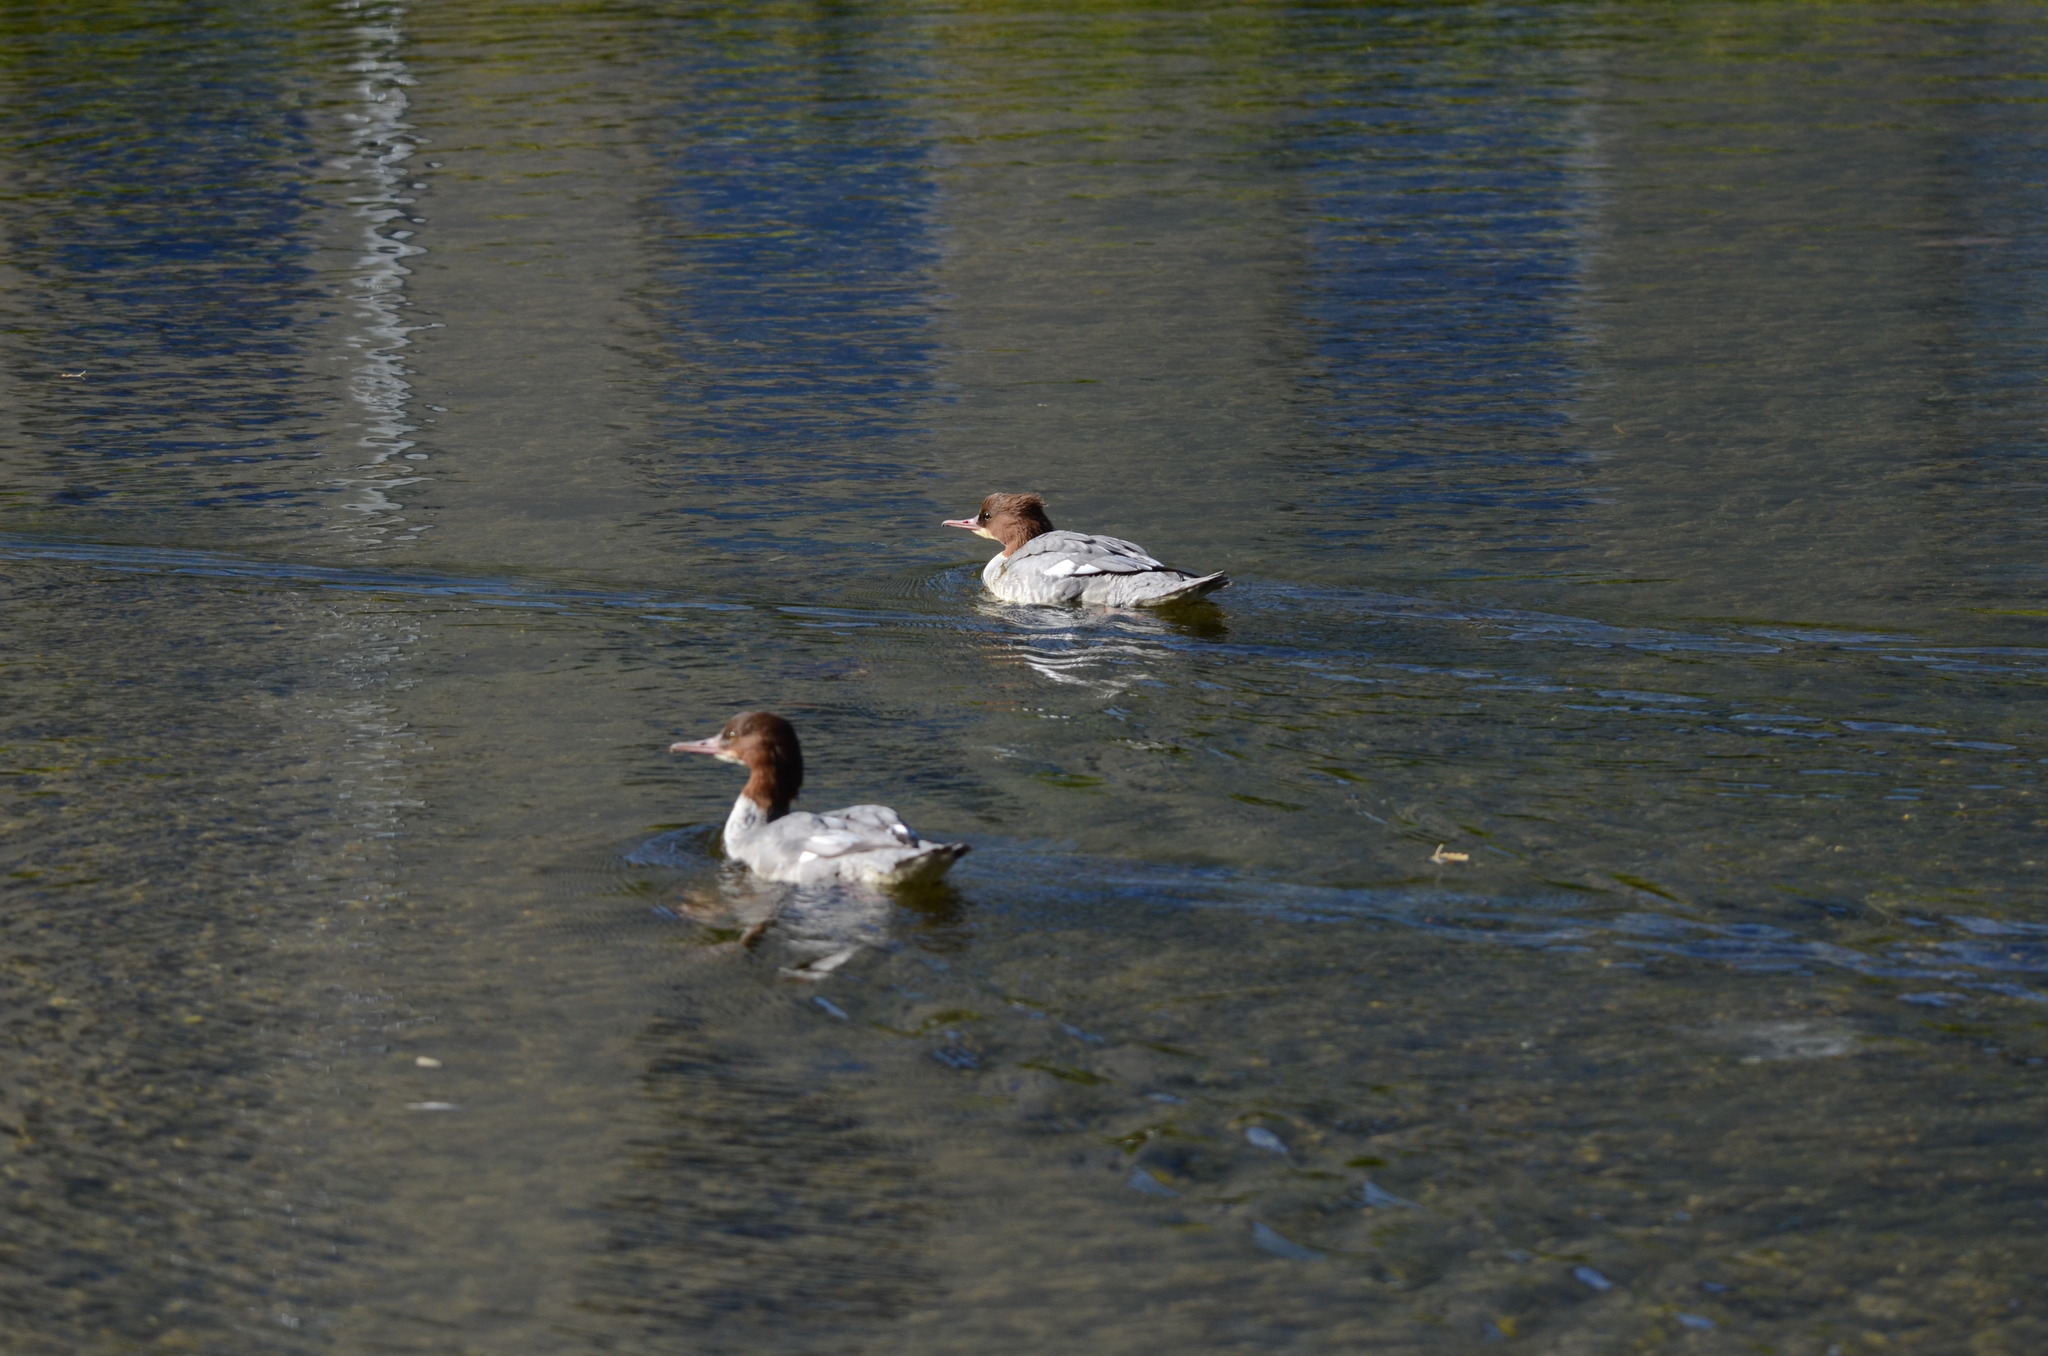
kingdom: Animalia
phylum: Chordata
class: Aves
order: Anseriformes
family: Anatidae
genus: Mergus
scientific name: Mergus merganser
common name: Common merganser
